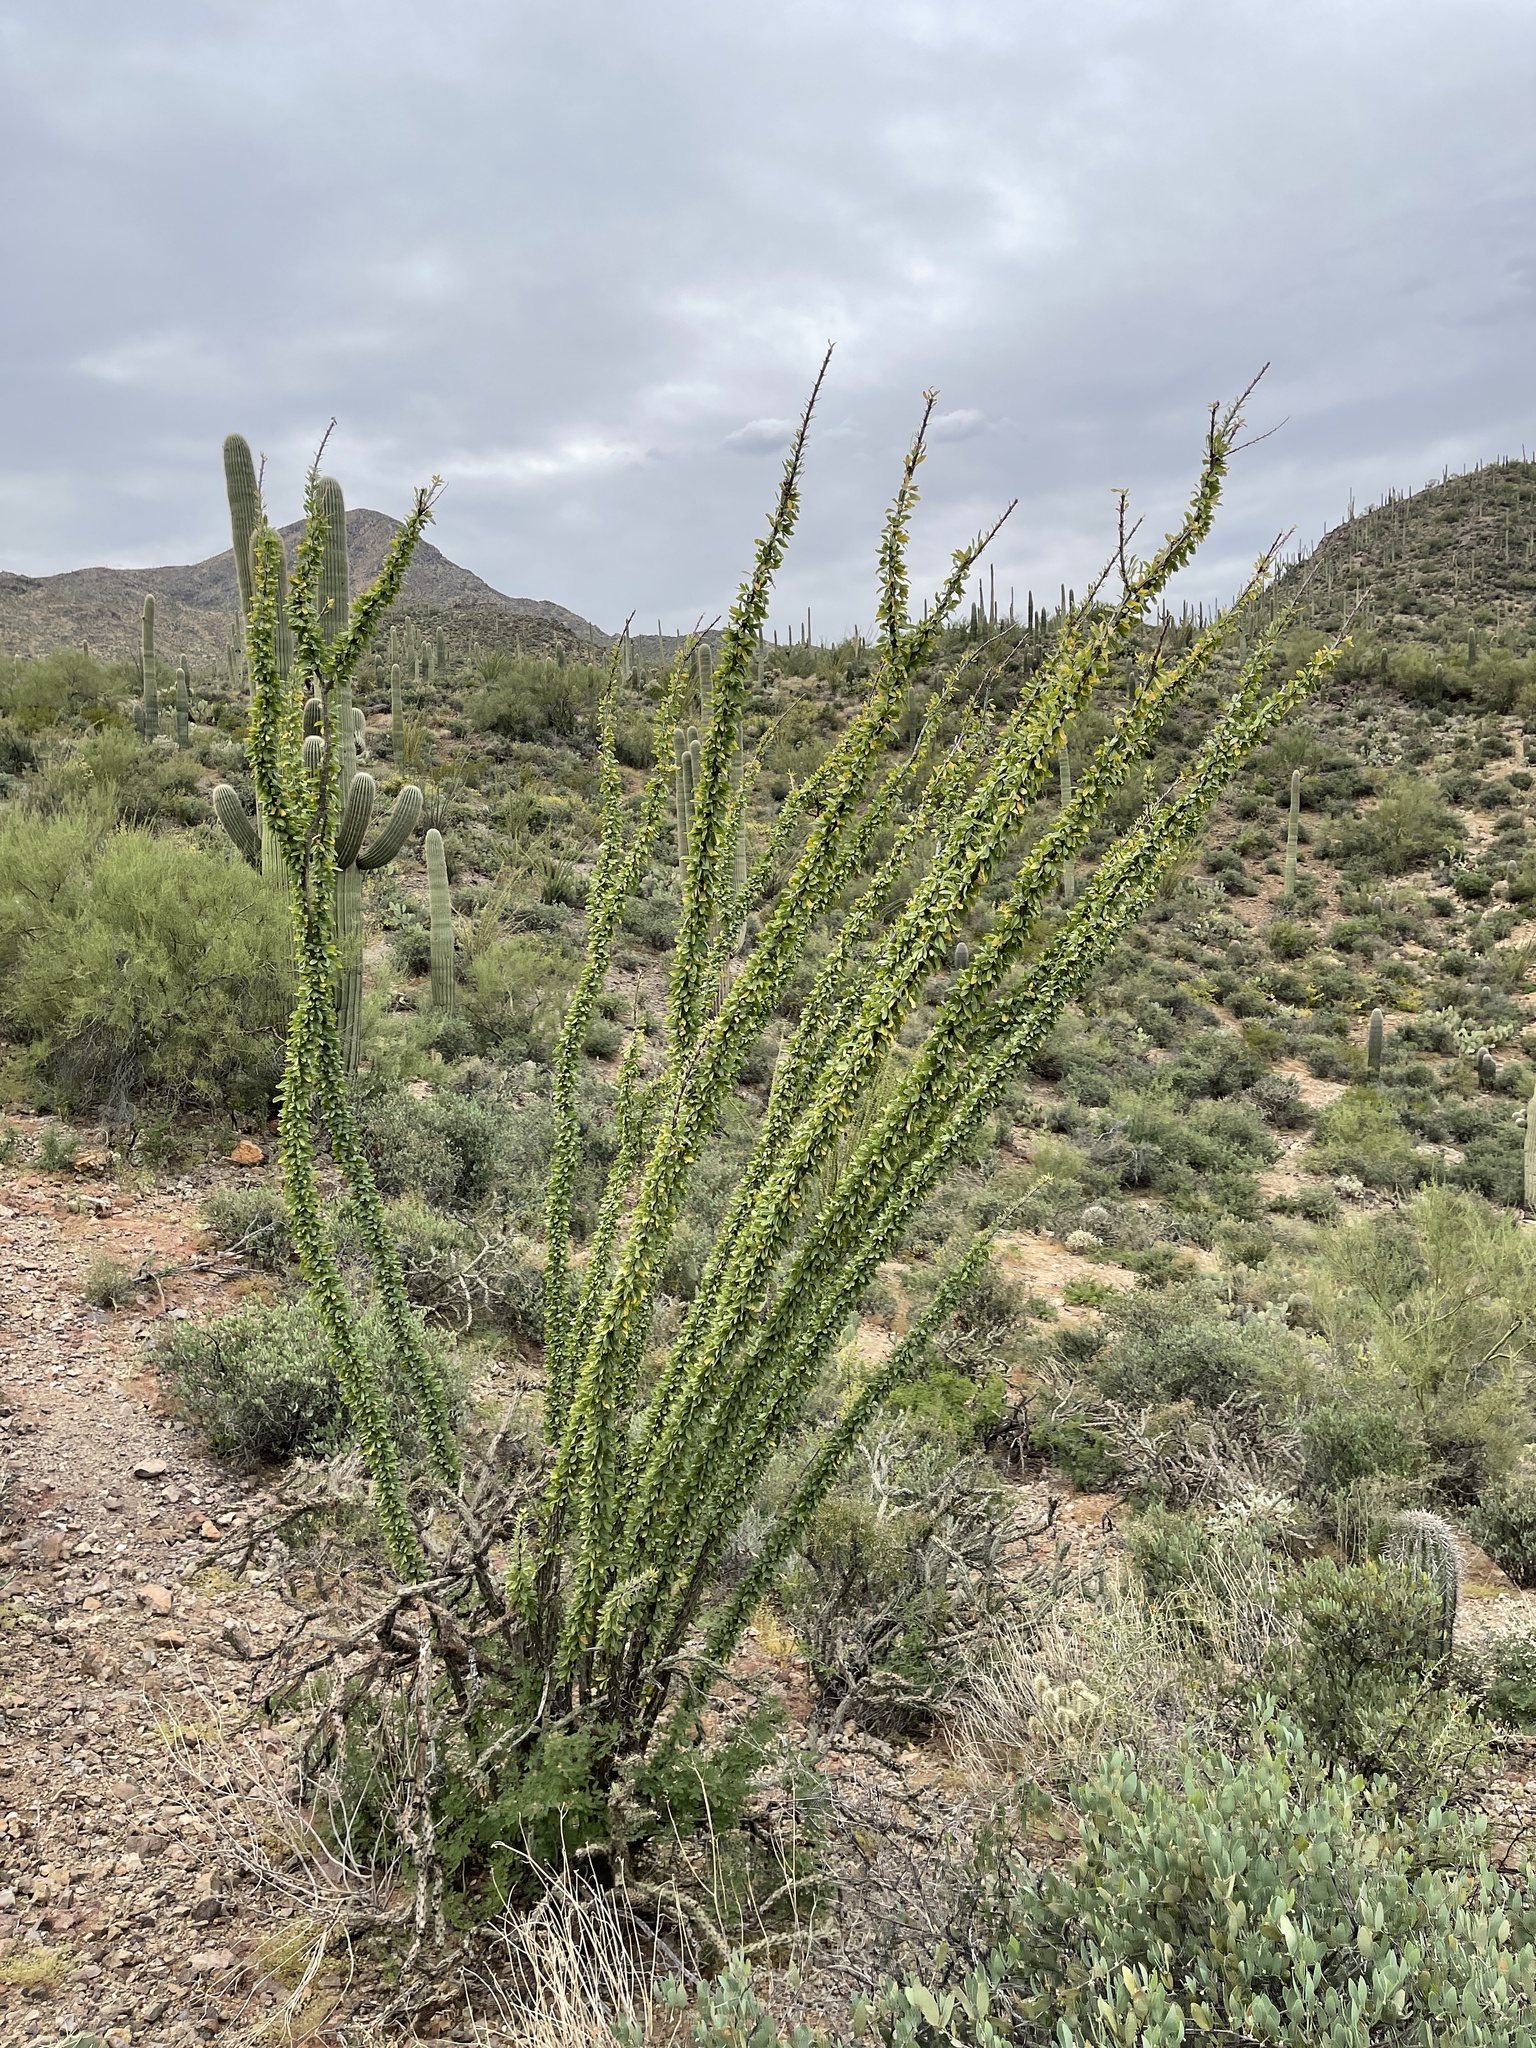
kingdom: Plantae
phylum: Tracheophyta
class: Magnoliopsida
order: Ericales
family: Fouquieriaceae
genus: Fouquieria
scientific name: Fouquieria splendens
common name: Vine-cactus
